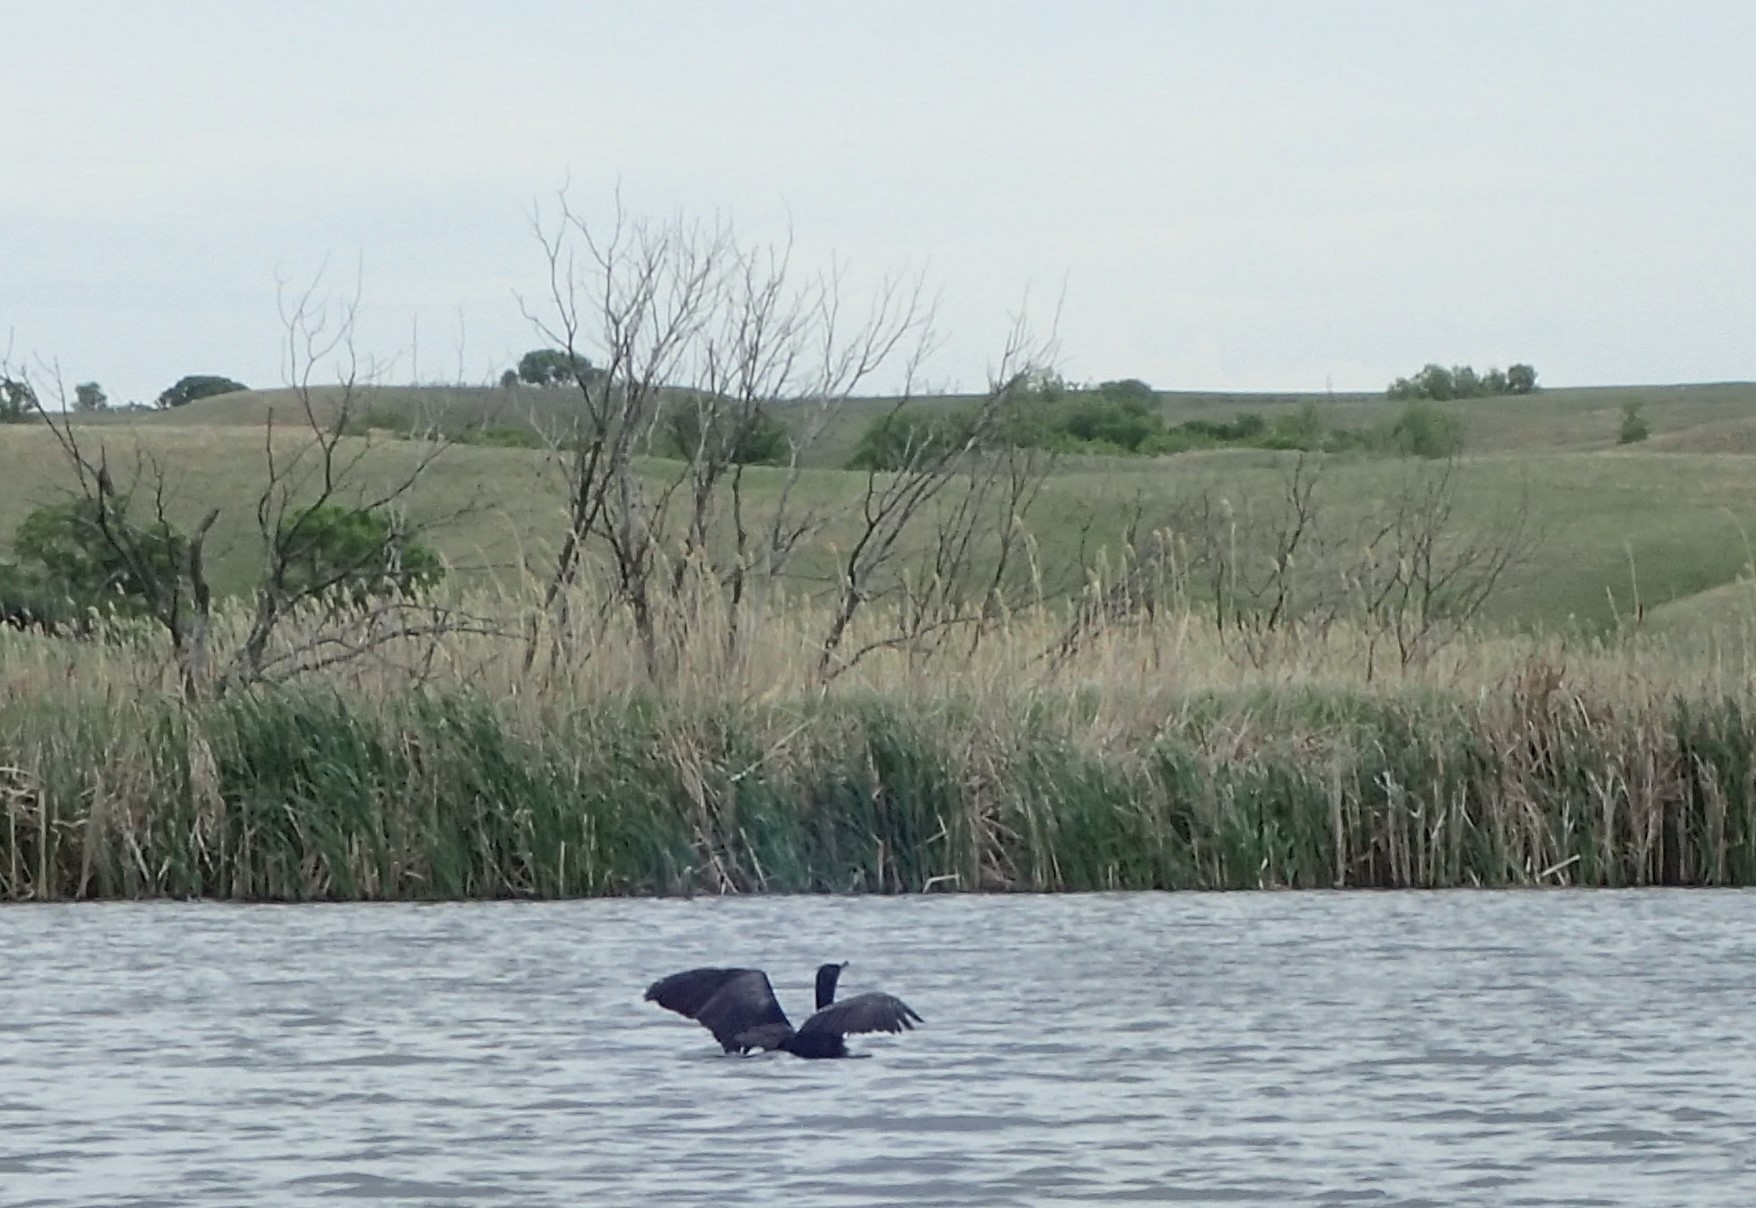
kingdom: Animalia
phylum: Chordata
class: Aves
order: Suliformes
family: Phalacrocoracidae
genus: Phalacrocorax
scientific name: Phalacrocorax auritus
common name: Double-crested cormorant
